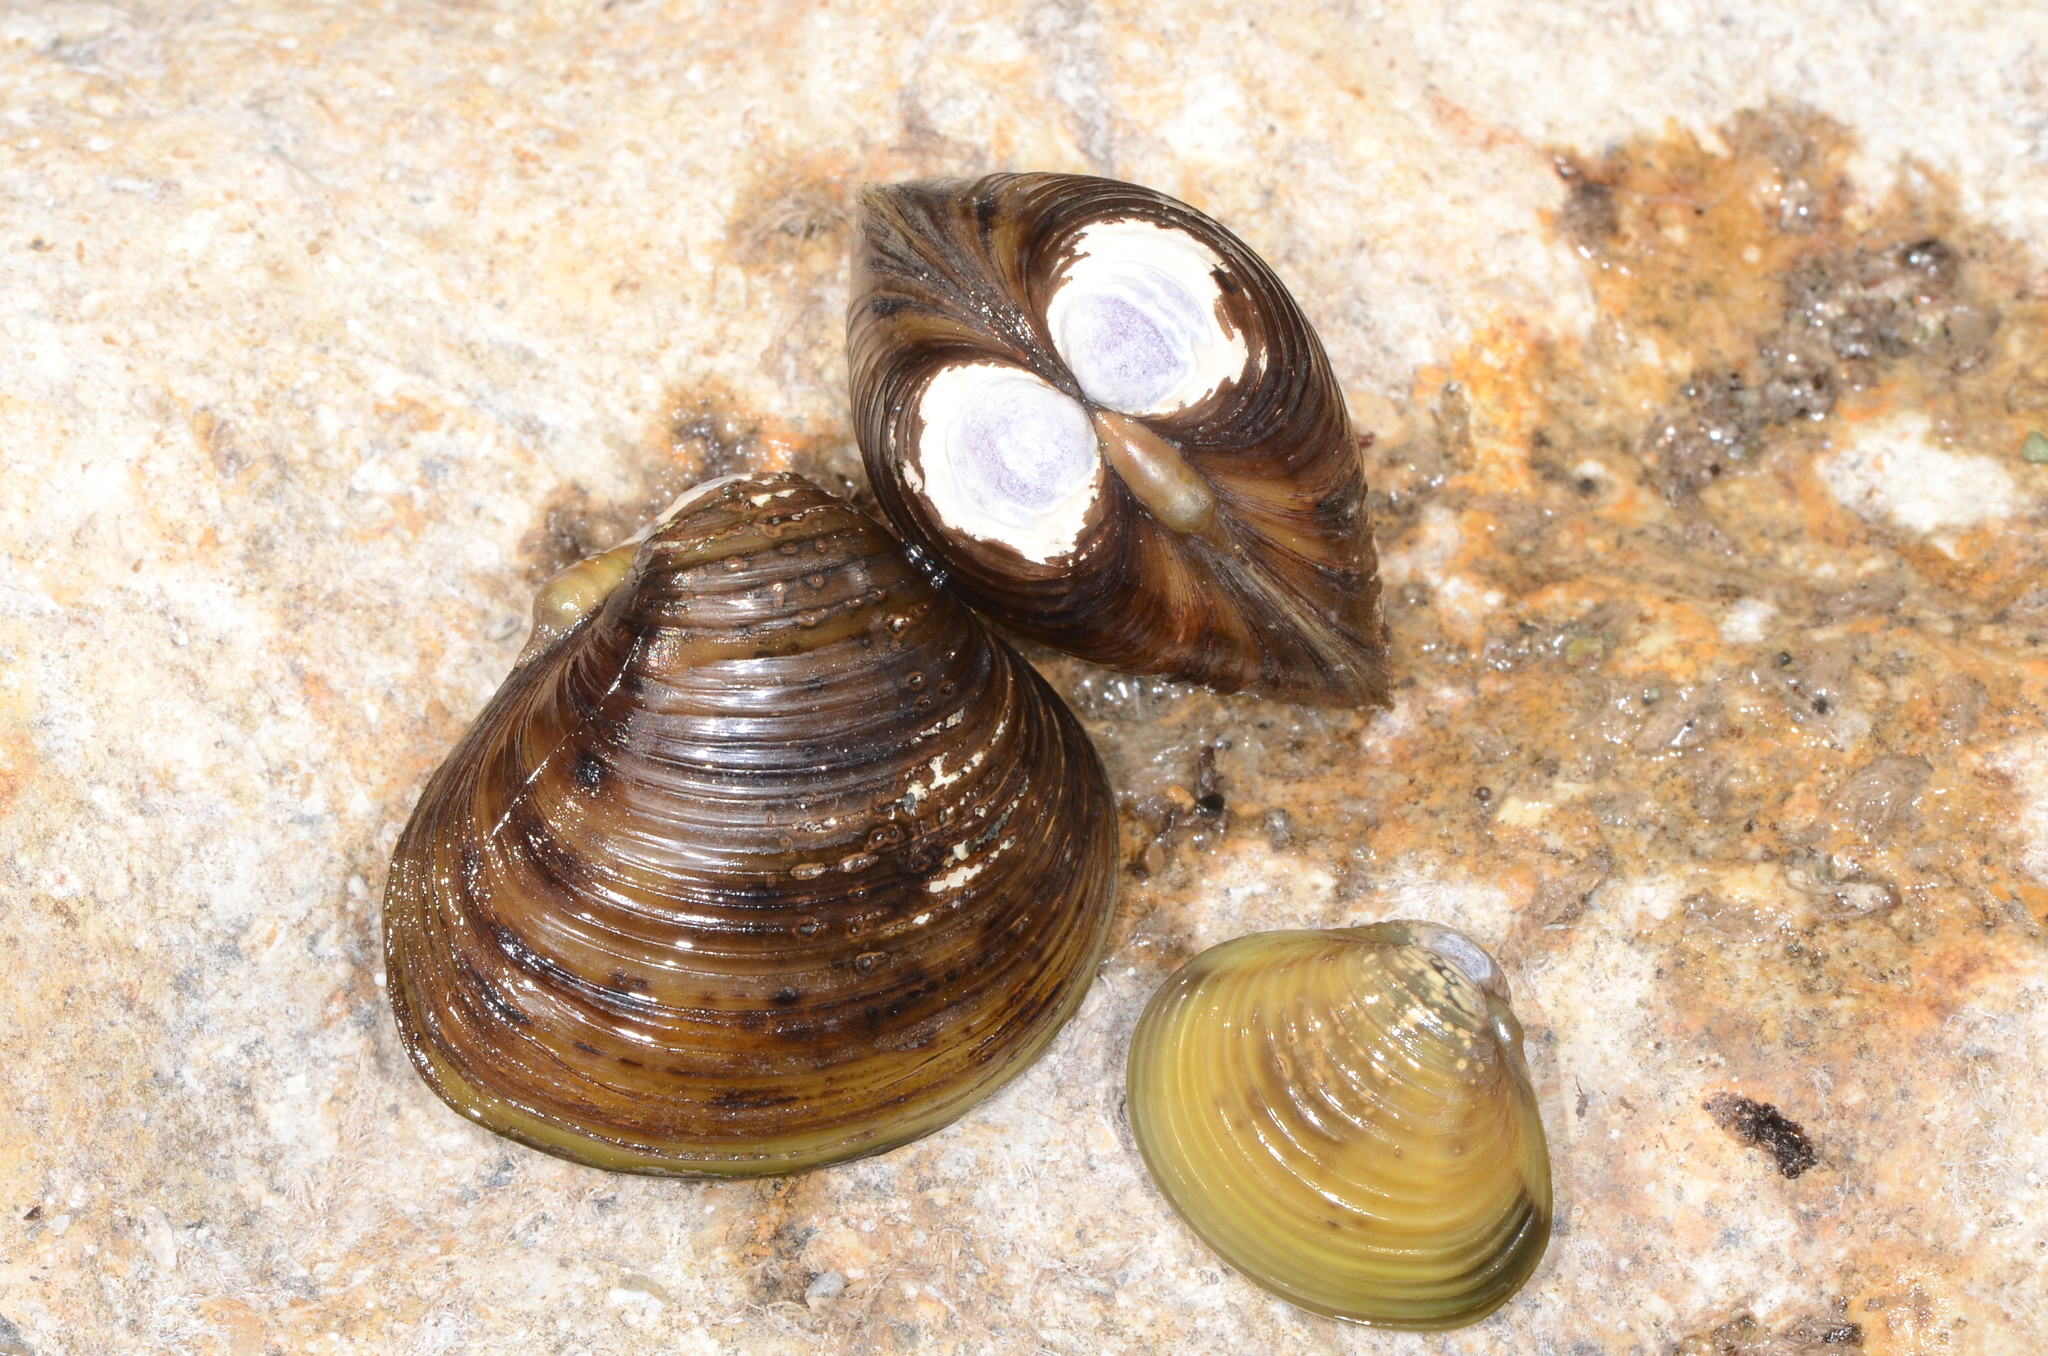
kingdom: Animalia
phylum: Mollusca
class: Bivalvia
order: Venerida
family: Cyrenidae
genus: Corbicula
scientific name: Corbicula fluminea
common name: Asian clam
